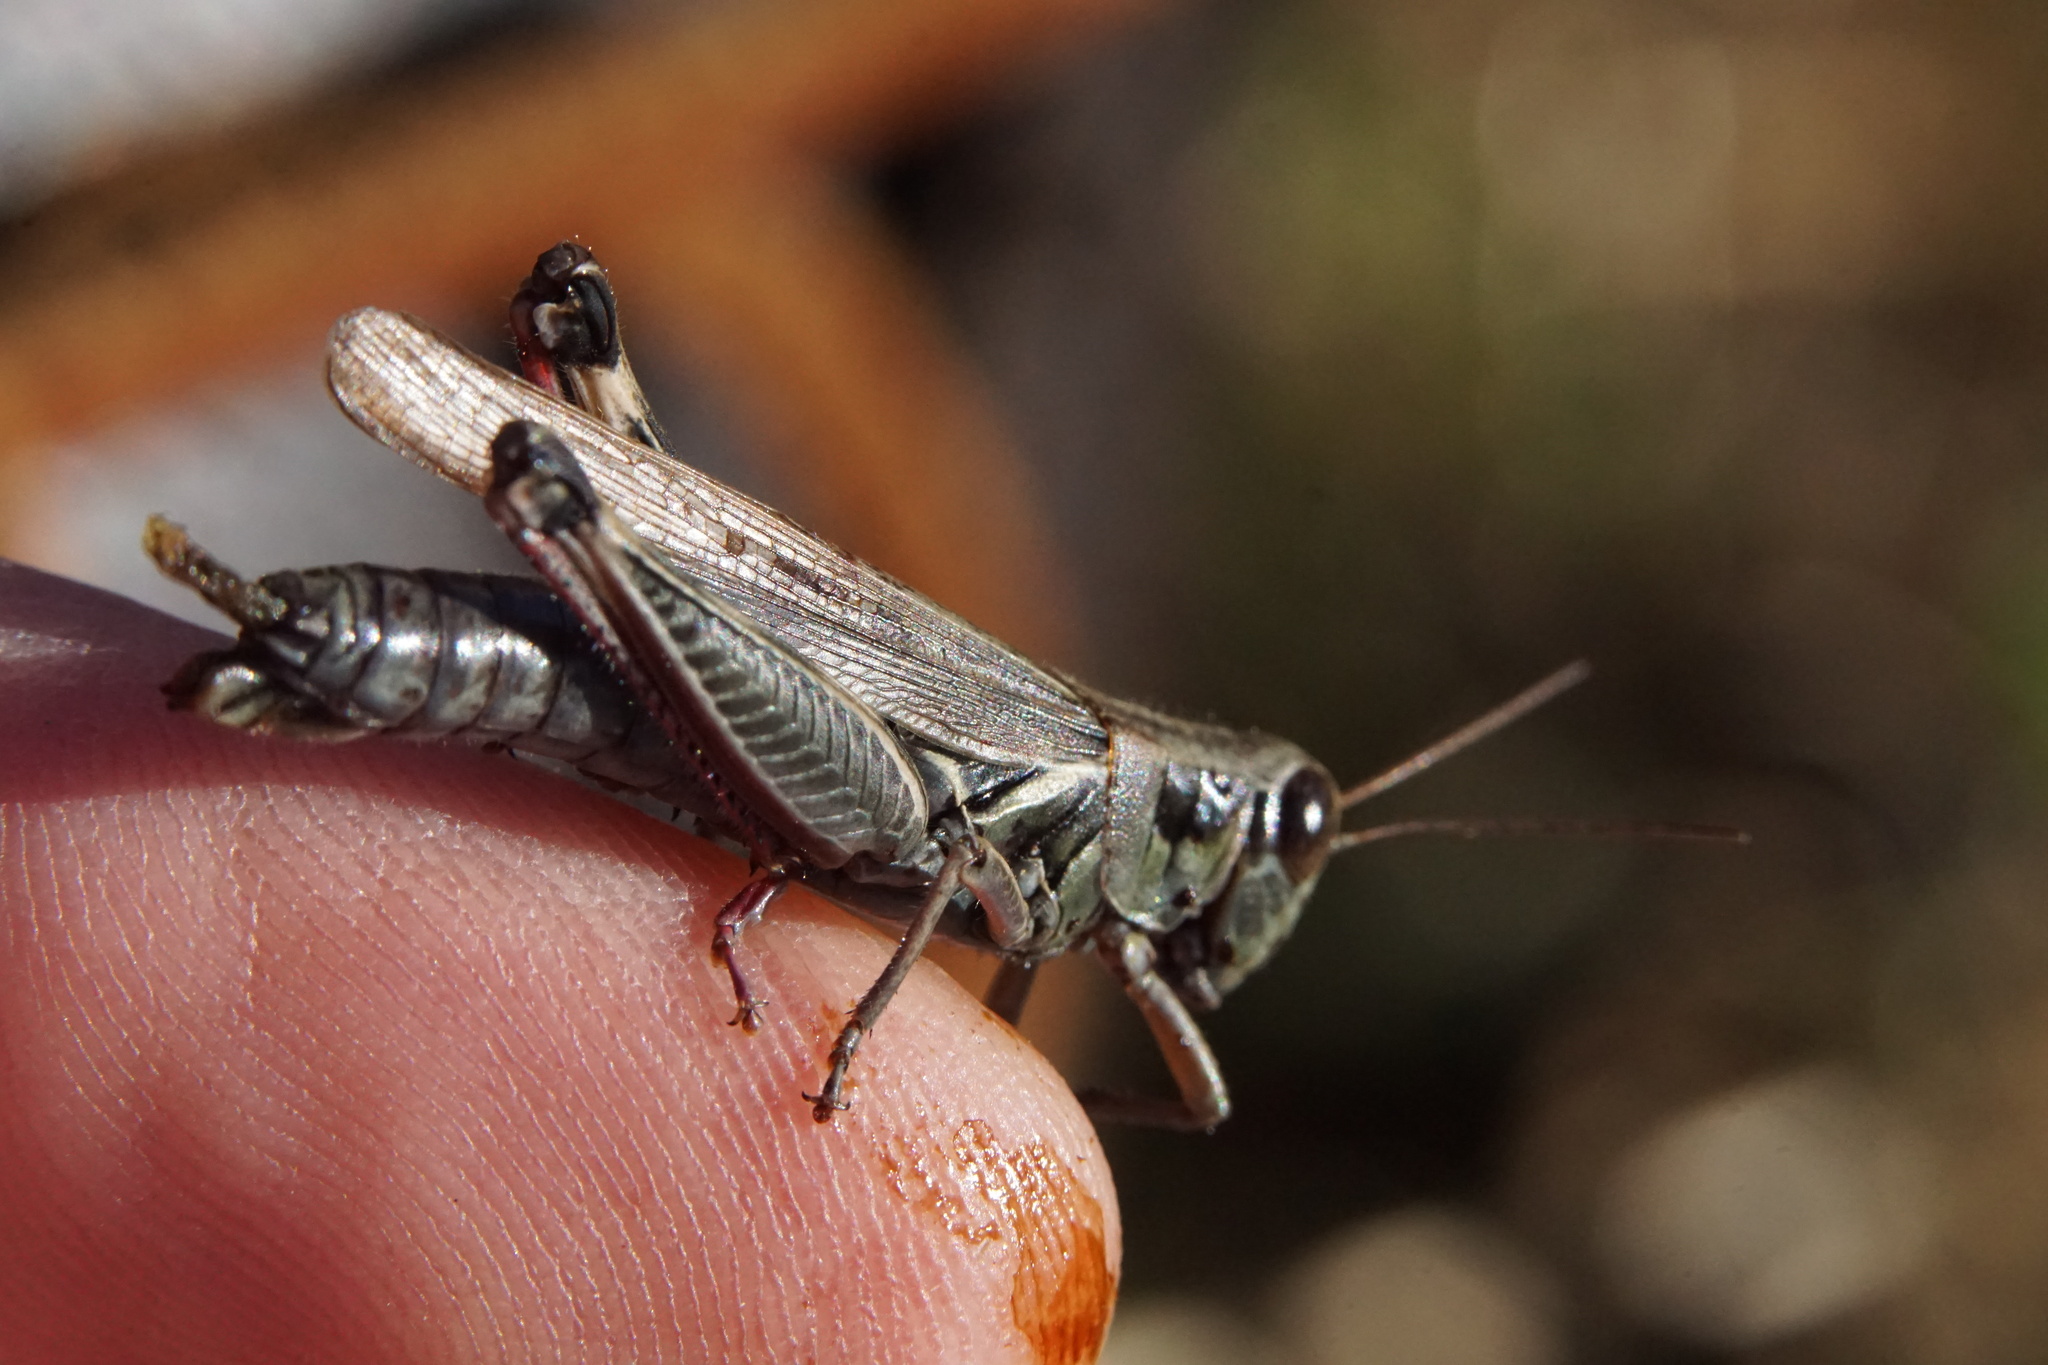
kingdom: Animalia
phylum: Arthropoda
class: Insecta
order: Orthoptera
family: Acrididae
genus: Melanoplus
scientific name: Melanoplus femurrubrum
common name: Red-legged grasshopper
